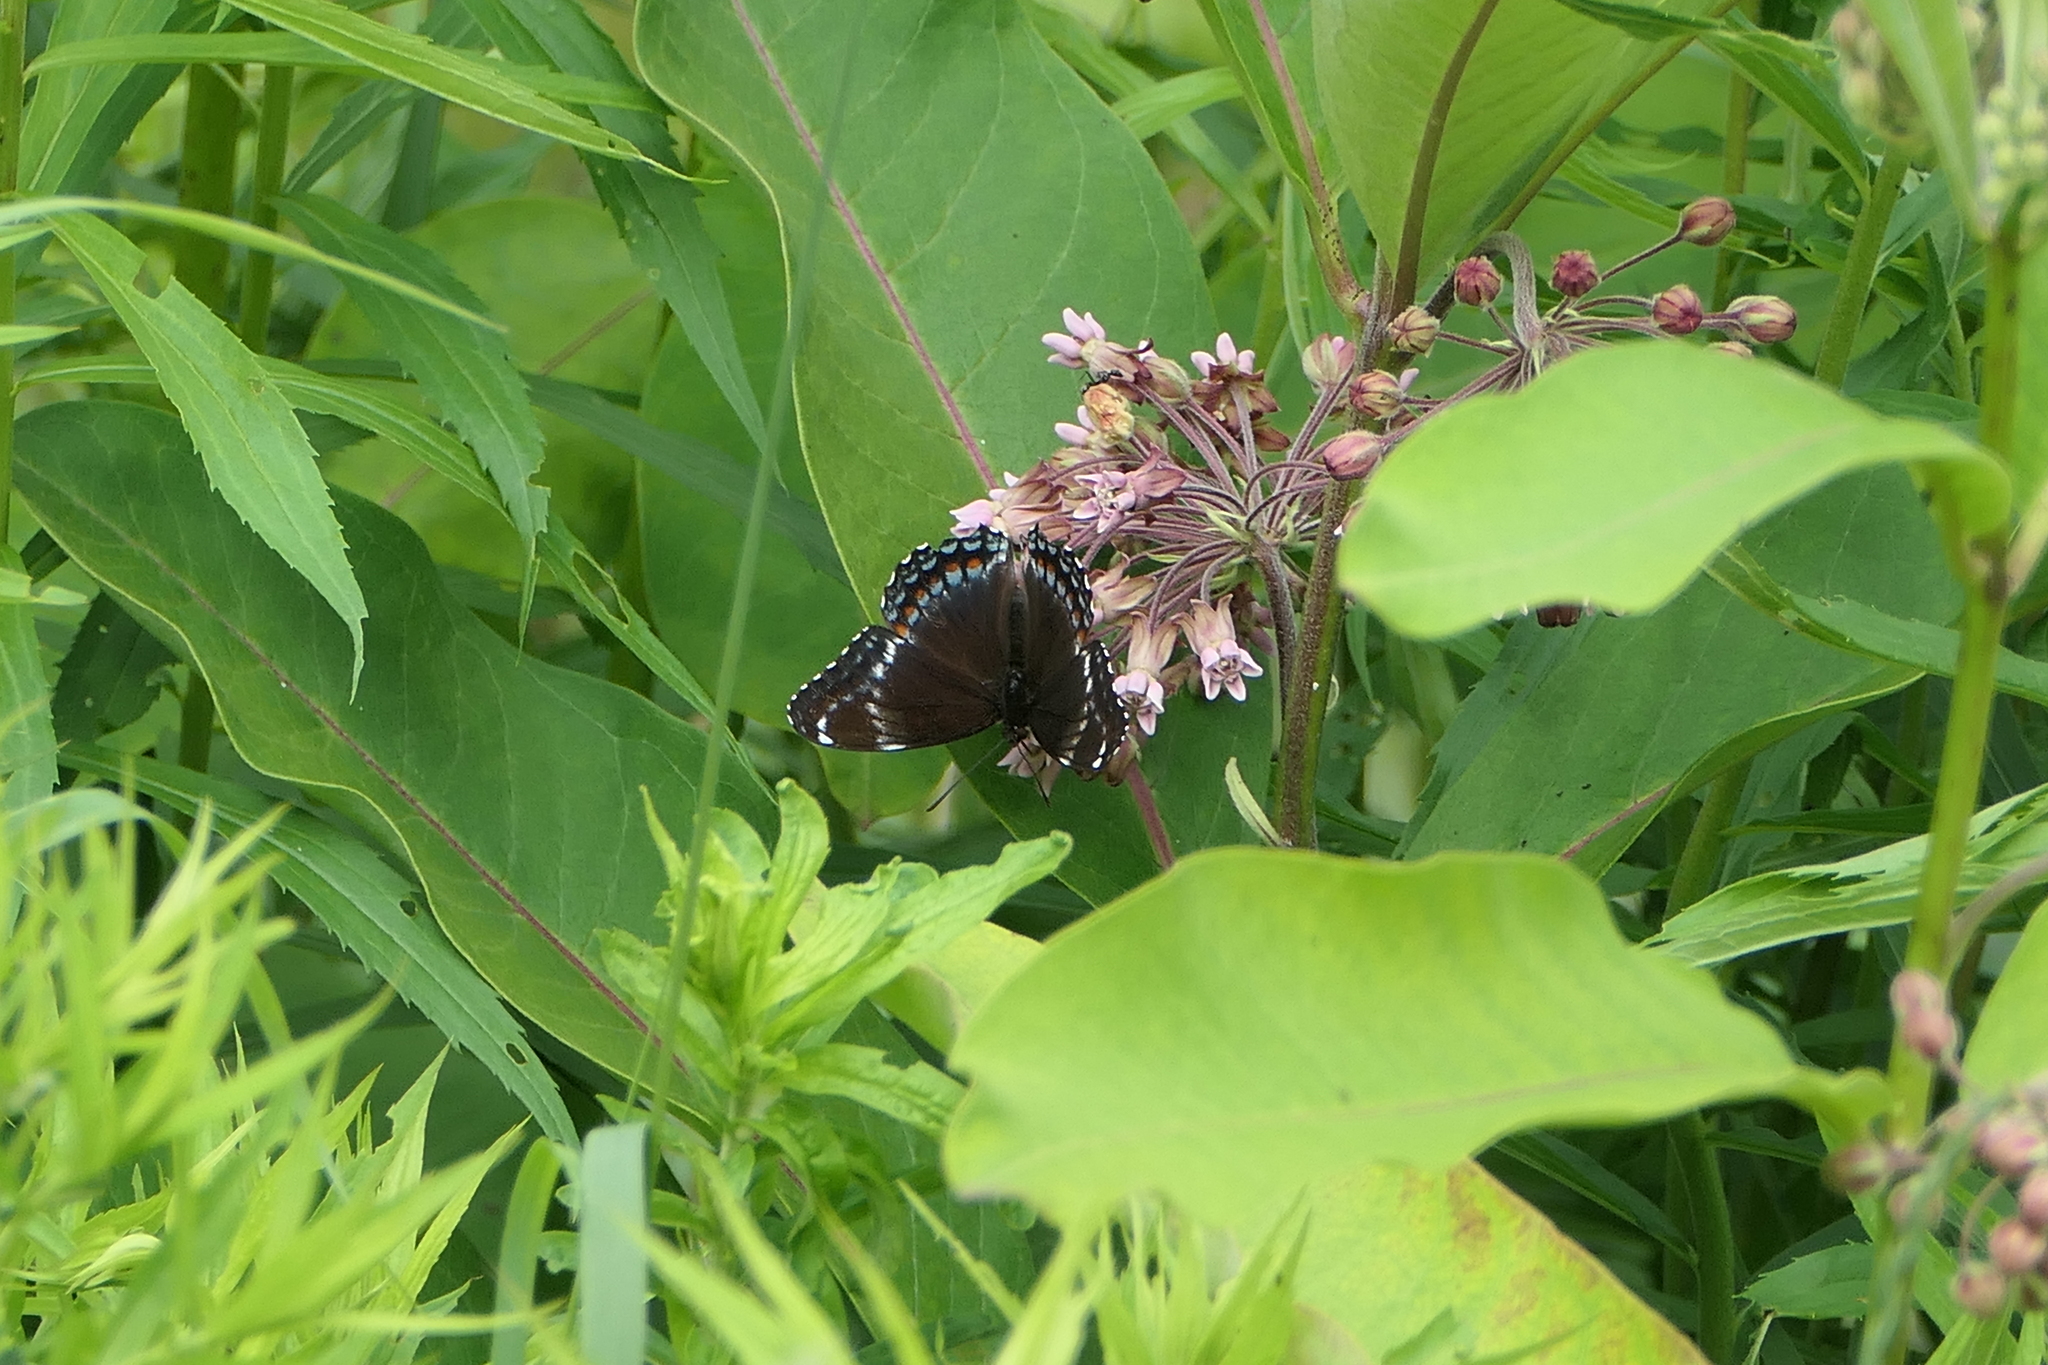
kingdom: Animalia
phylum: Arthropoda
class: Insecta
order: Lepidoptera
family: Nymphalidae
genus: Limenitis
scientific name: Limenitis arthemis
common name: Red-spotted admiral
